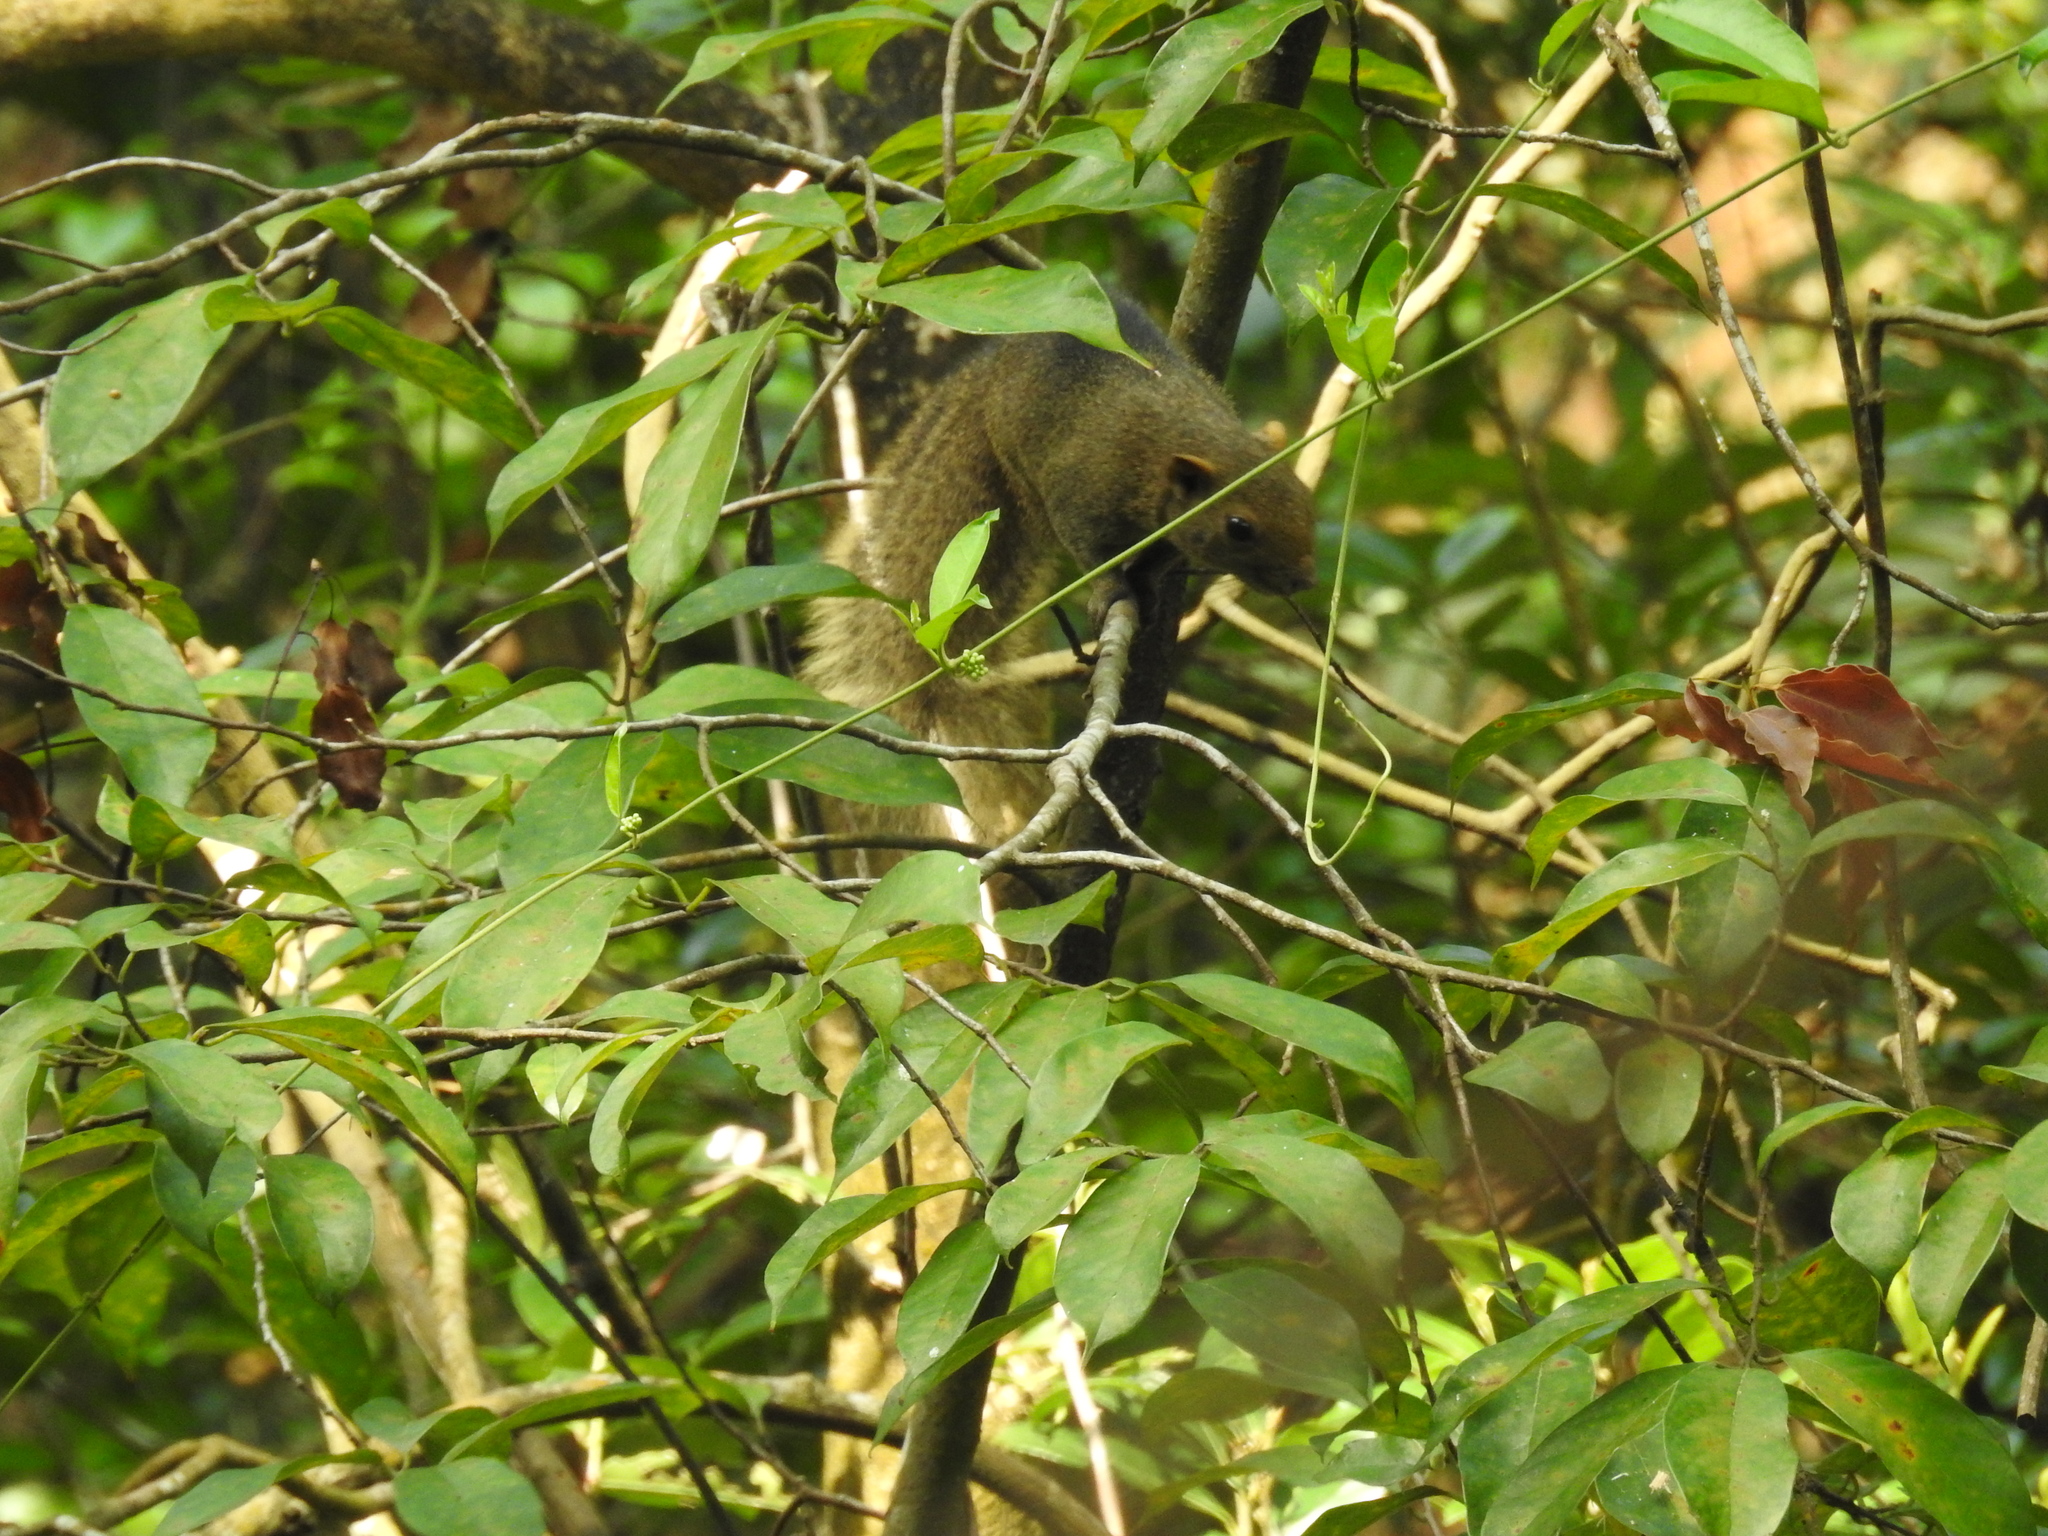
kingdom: Animalia
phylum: Chordata
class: Mammalia
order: Rodentia
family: Sciuridae
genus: Callosciurus
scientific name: Callosciurus erythraeus
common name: Pallas's squirrel
